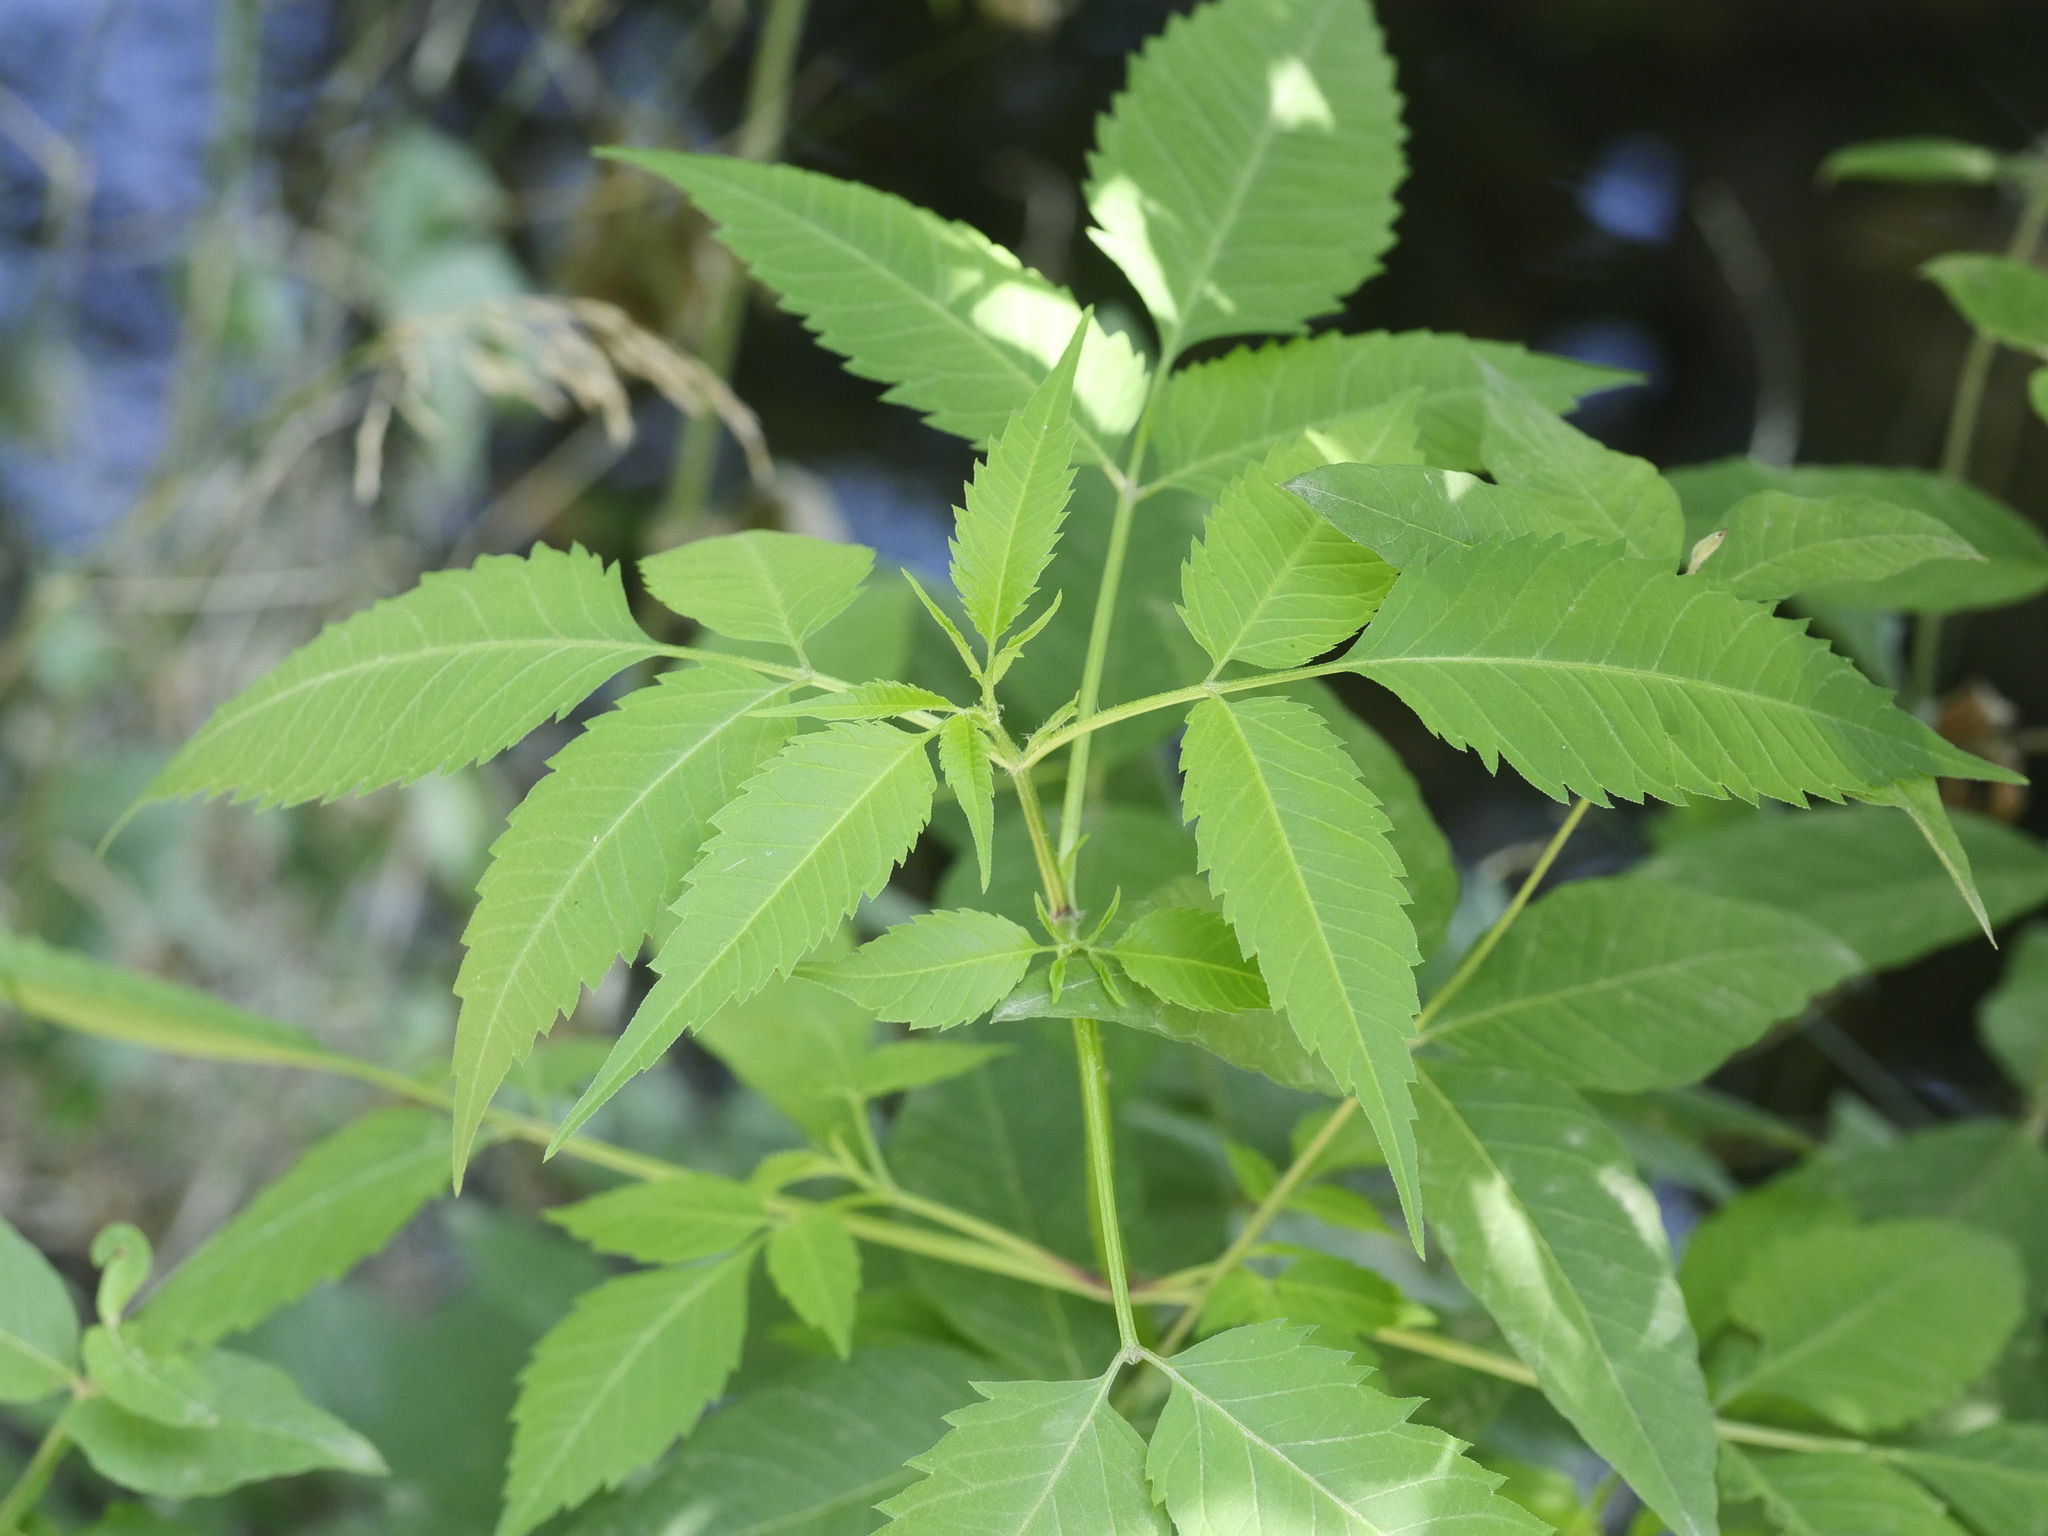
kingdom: Plantae
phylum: Tracheophyta
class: Magnoliopsida
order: Asterales
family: Asteraceae
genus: Bidens
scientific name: Bidens frondosa
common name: Beggarticks
